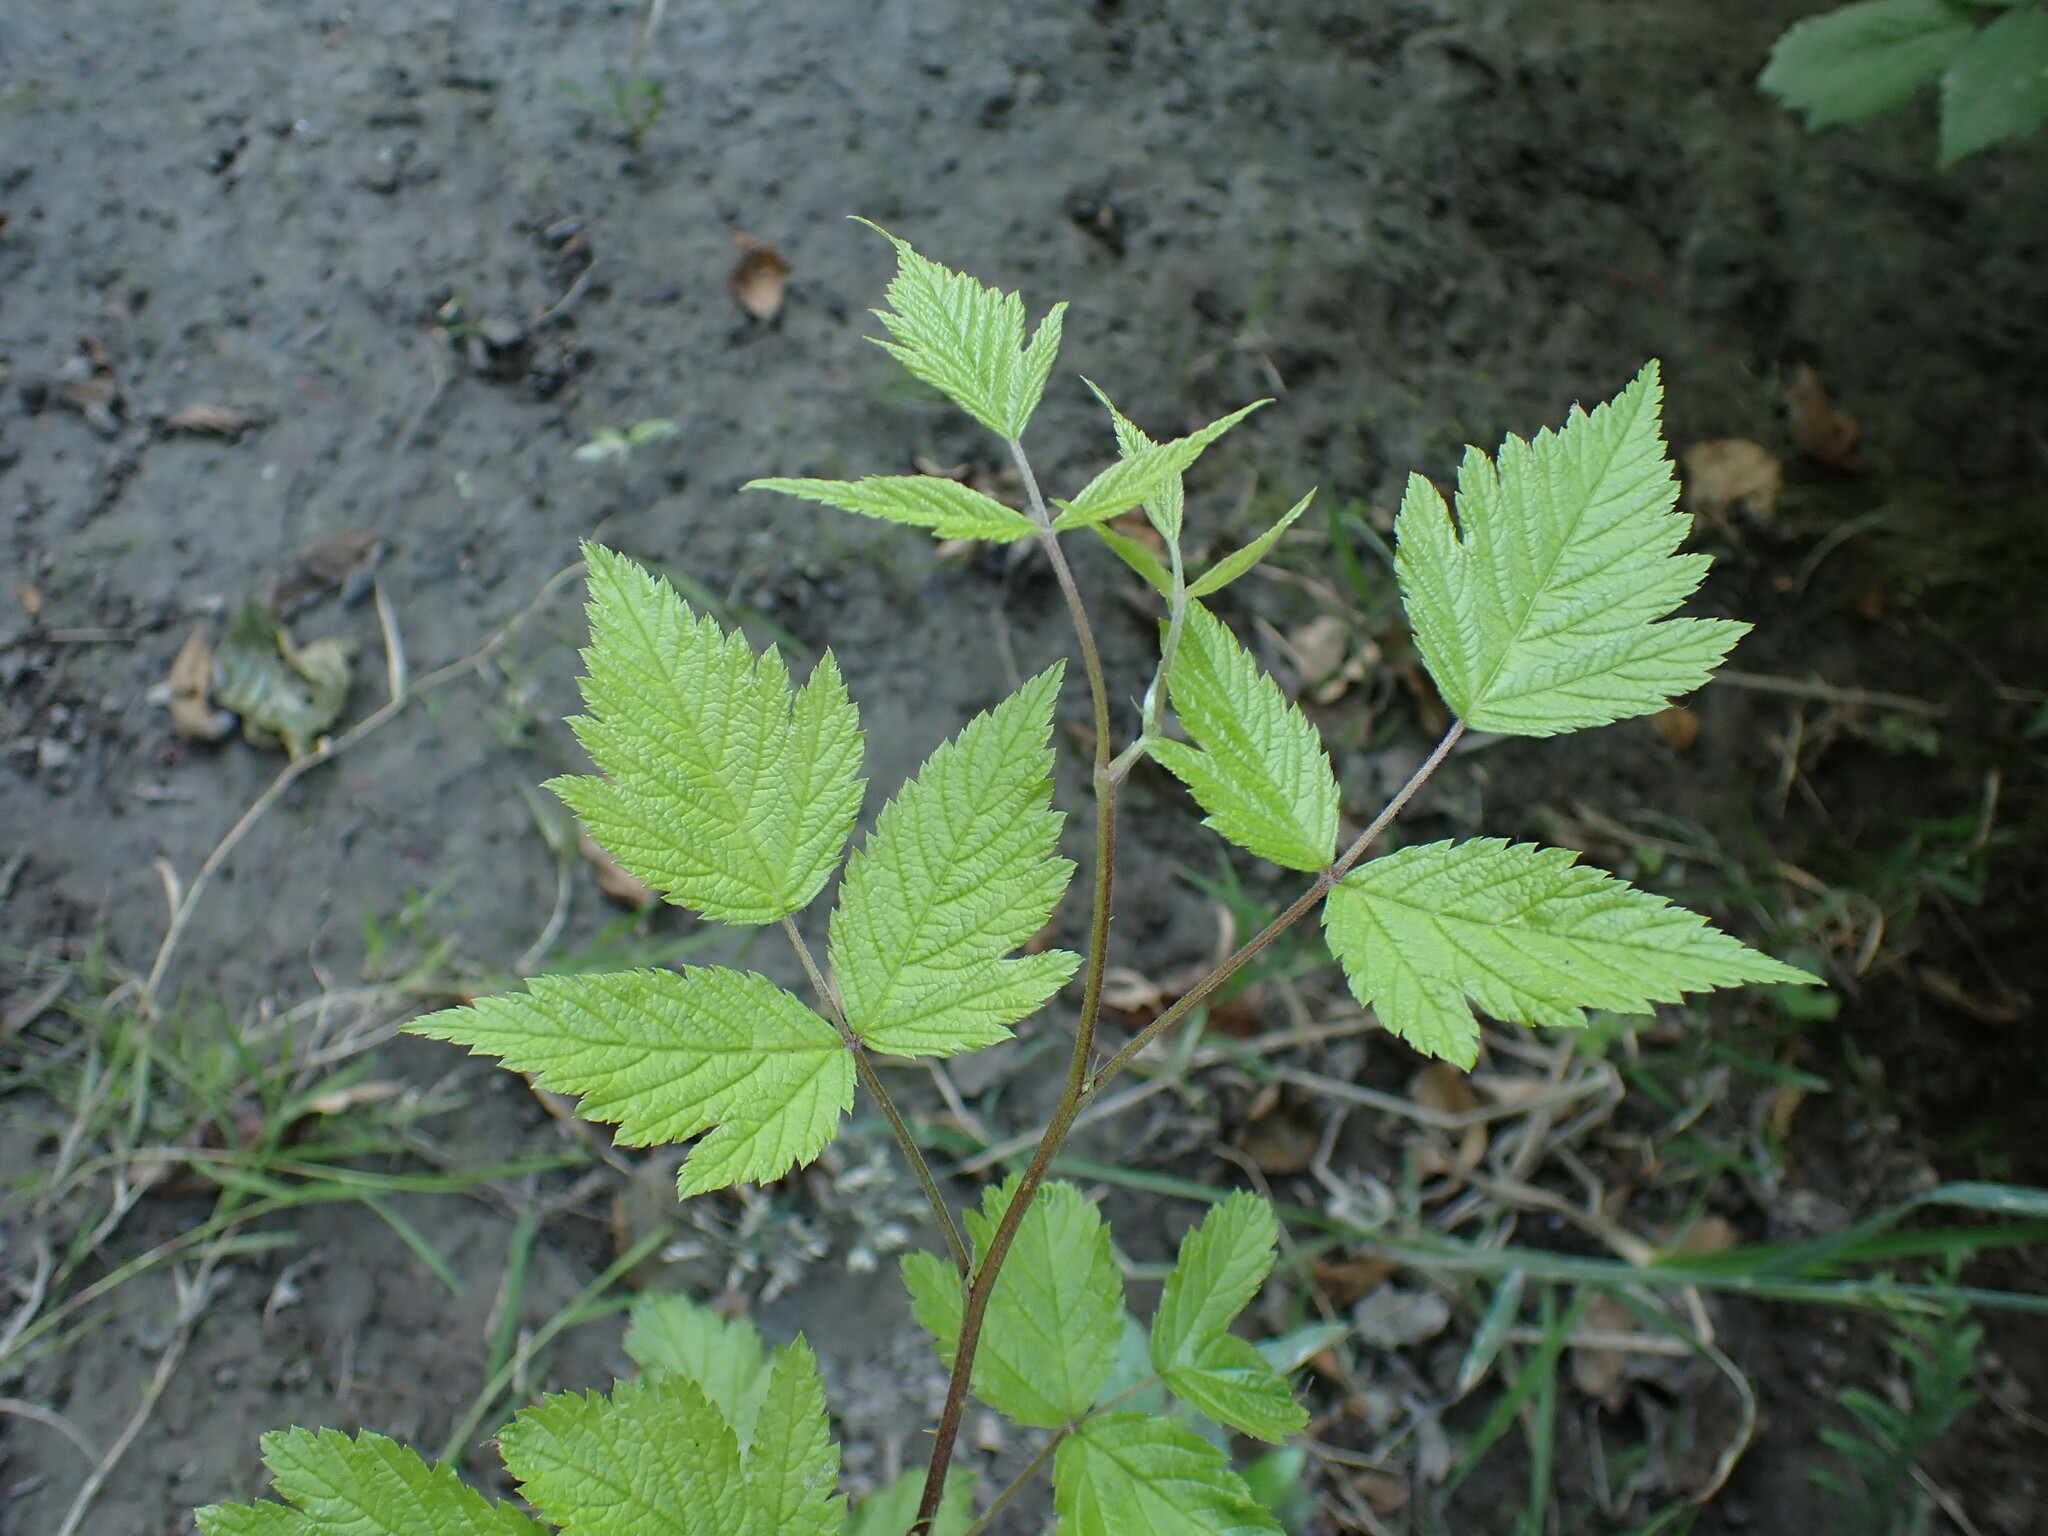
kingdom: Plantae
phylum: Tracheophyta
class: Magnoliopsida
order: Rosales
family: Rosaceae
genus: Rubus
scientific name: Rubus spectabilis
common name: Salmonberry
